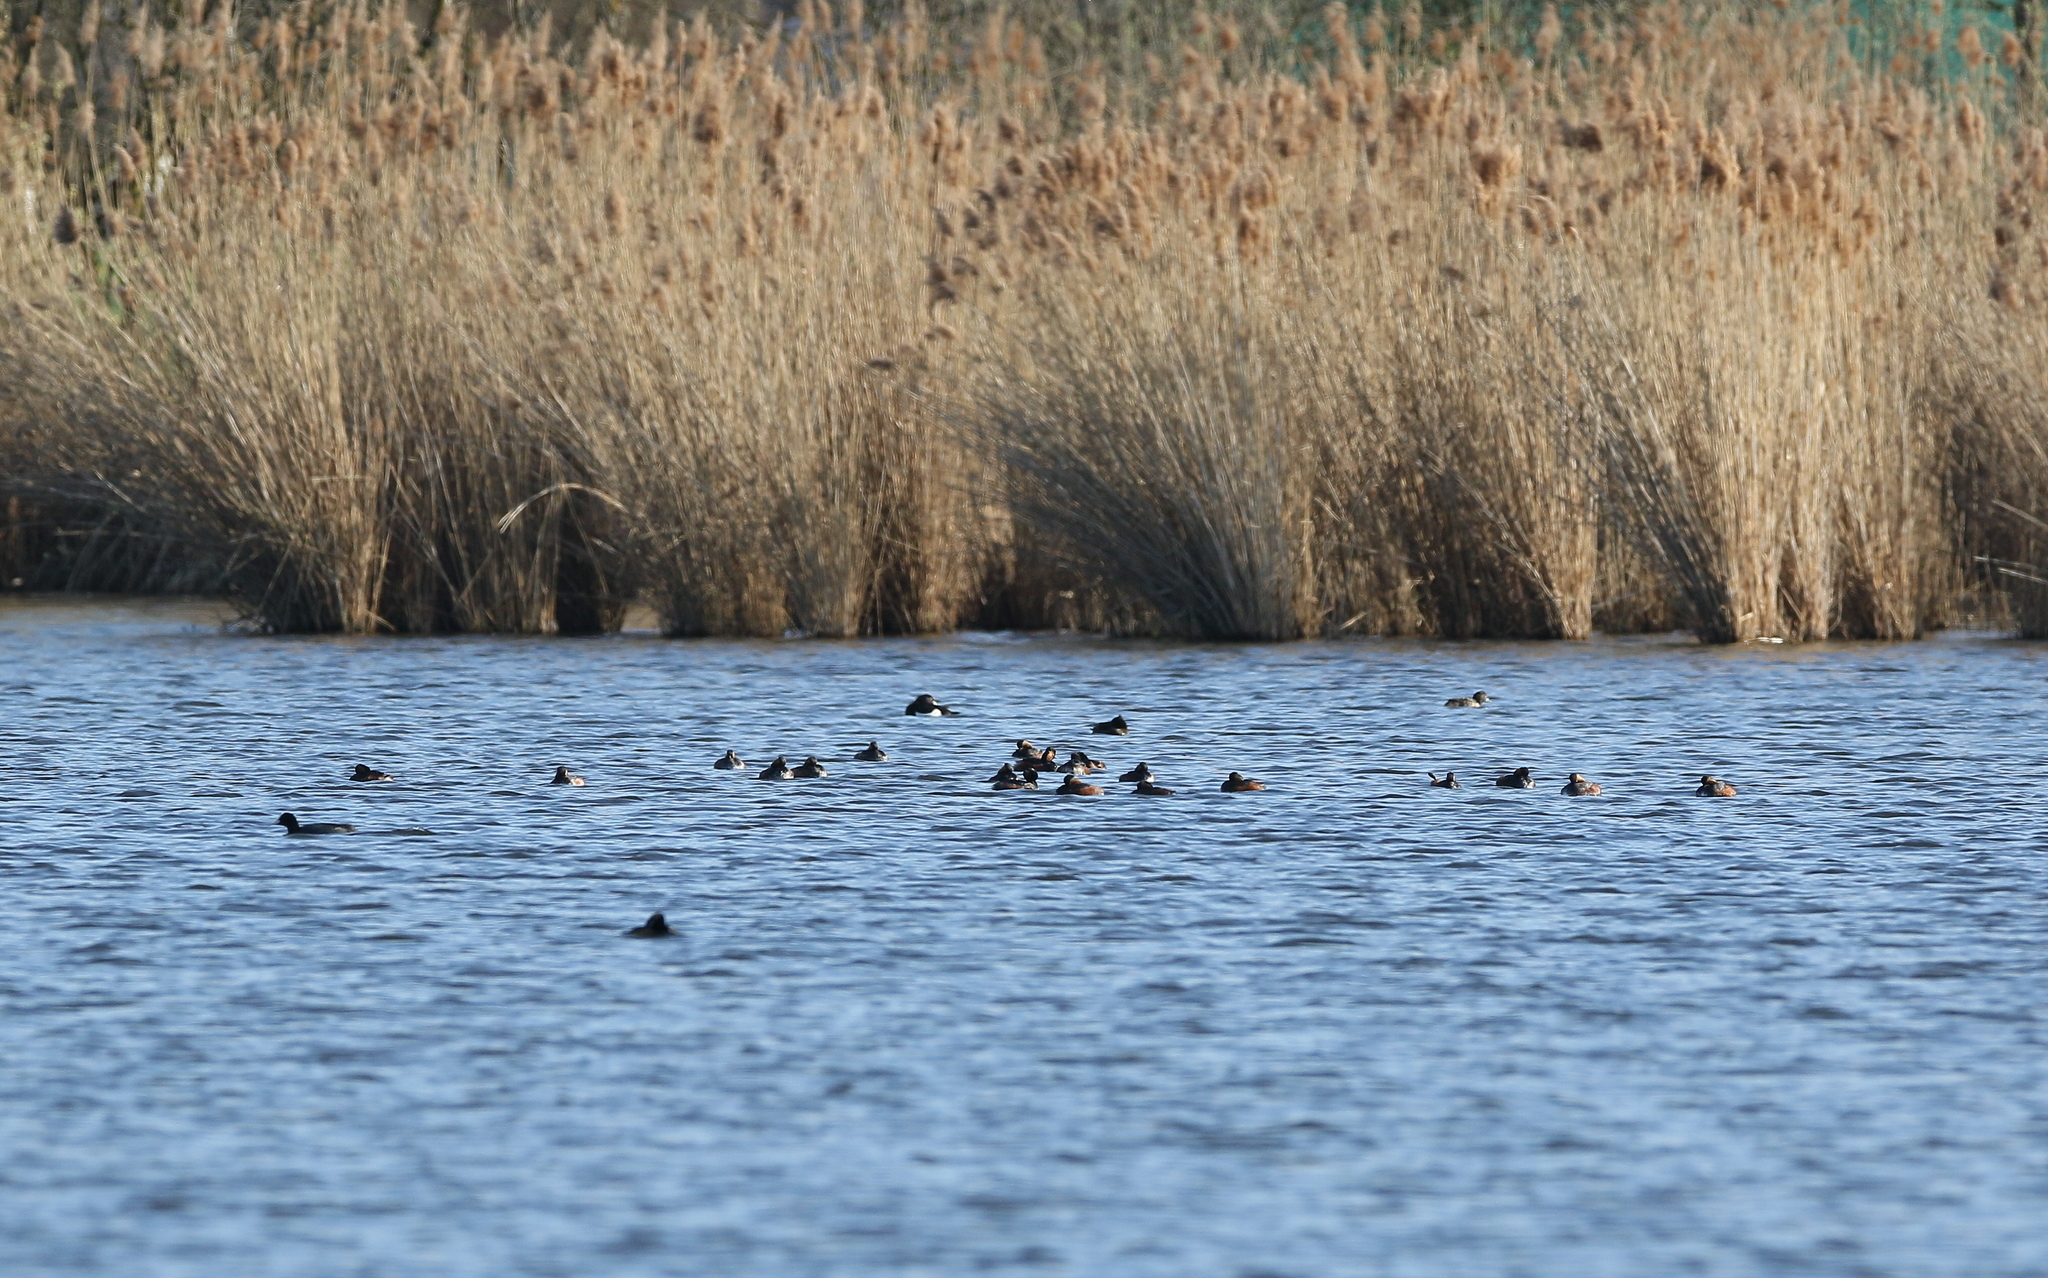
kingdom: Animalia
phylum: Chordata
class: Aves
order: Podicipediformes
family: Podicipedidae
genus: Podiceps
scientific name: Podiceps nigricollis
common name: Black-necked grebe
